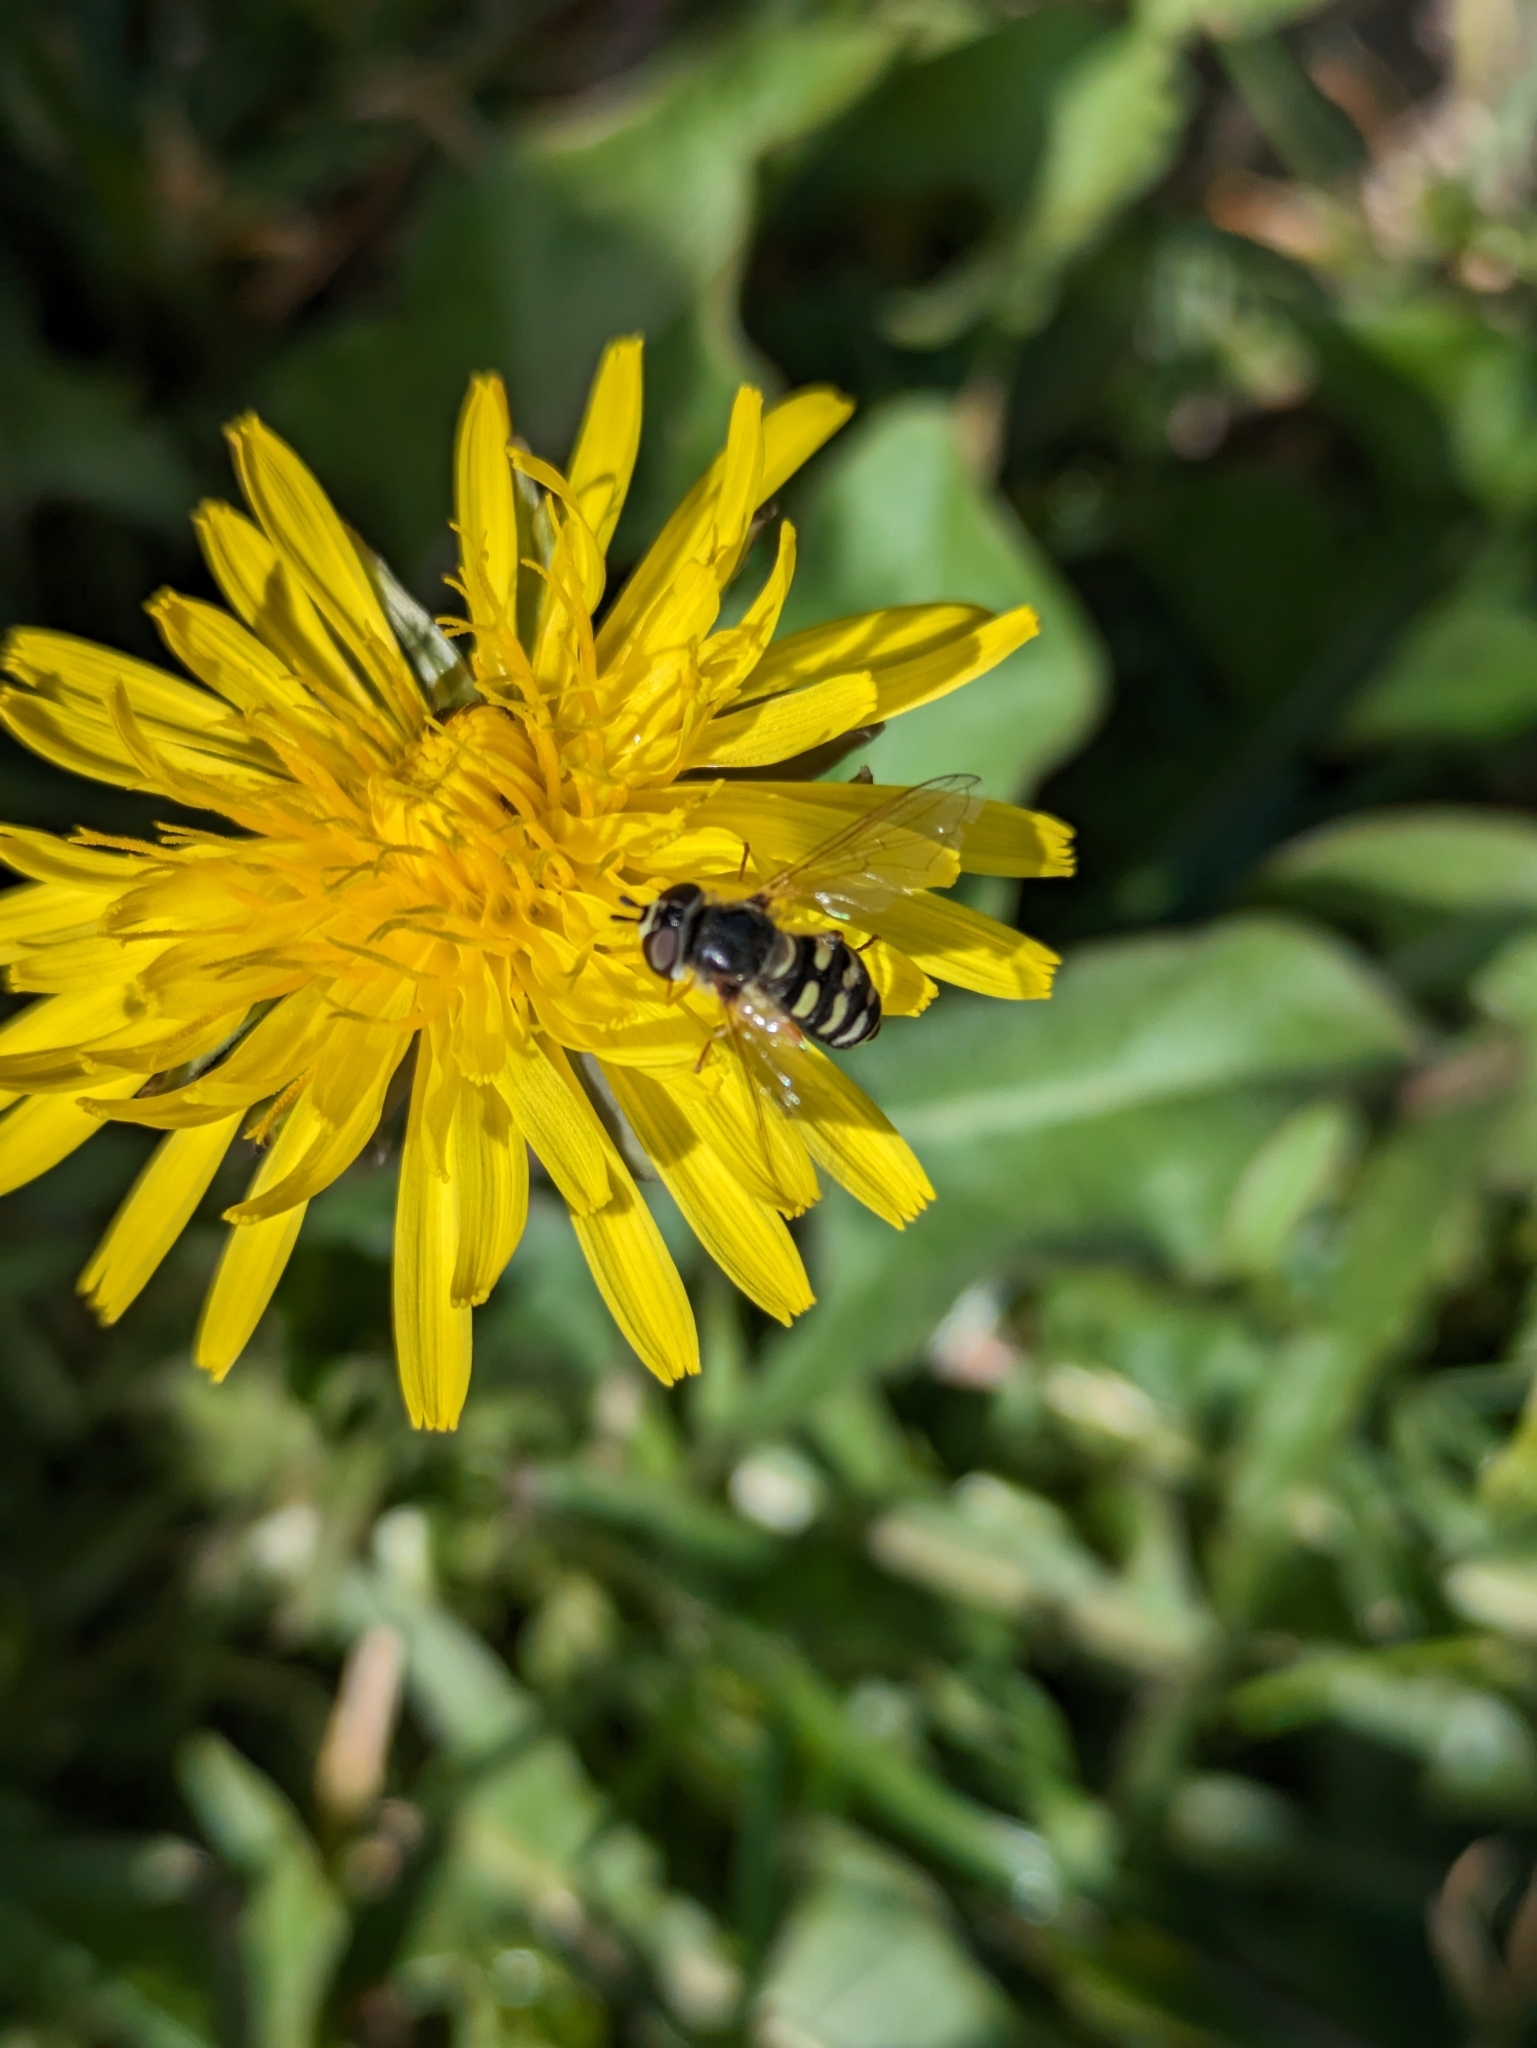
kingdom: Animalia
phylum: Arthropoda
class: Insecta
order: Diptera
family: Syrphidae
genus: Eupeodes
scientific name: Eupeodes volucris
